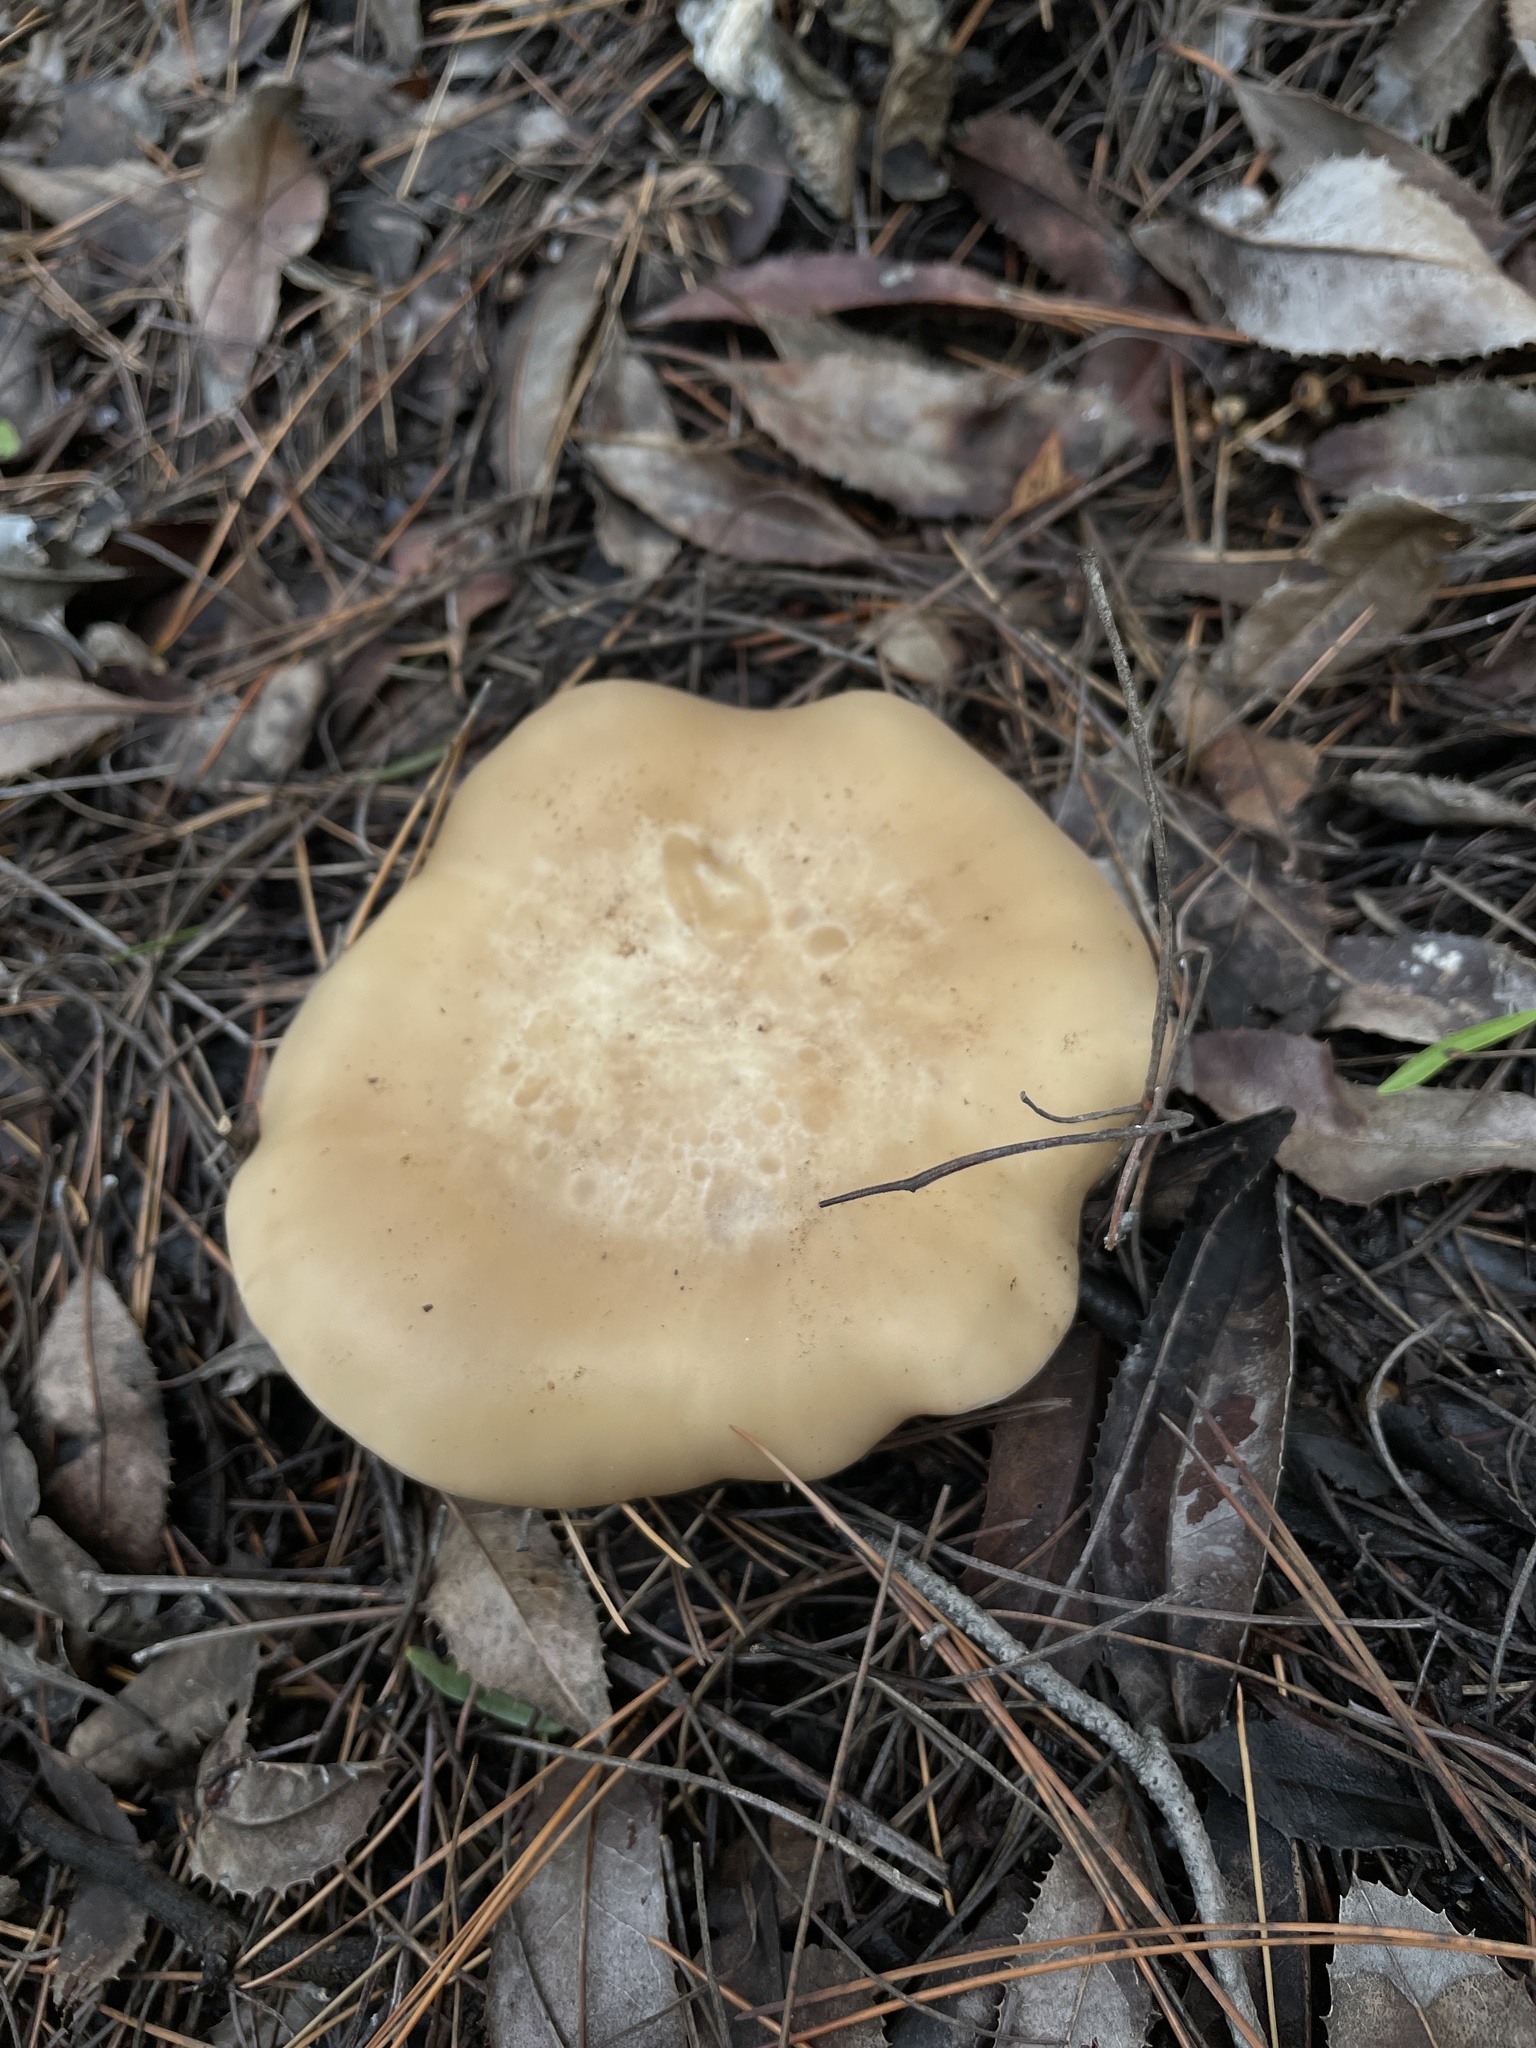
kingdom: Fungi
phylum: Basidiomycota
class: Agaricomycetes
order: Agaricales
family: Tricholomataceae
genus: Collybia
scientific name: Collybia
